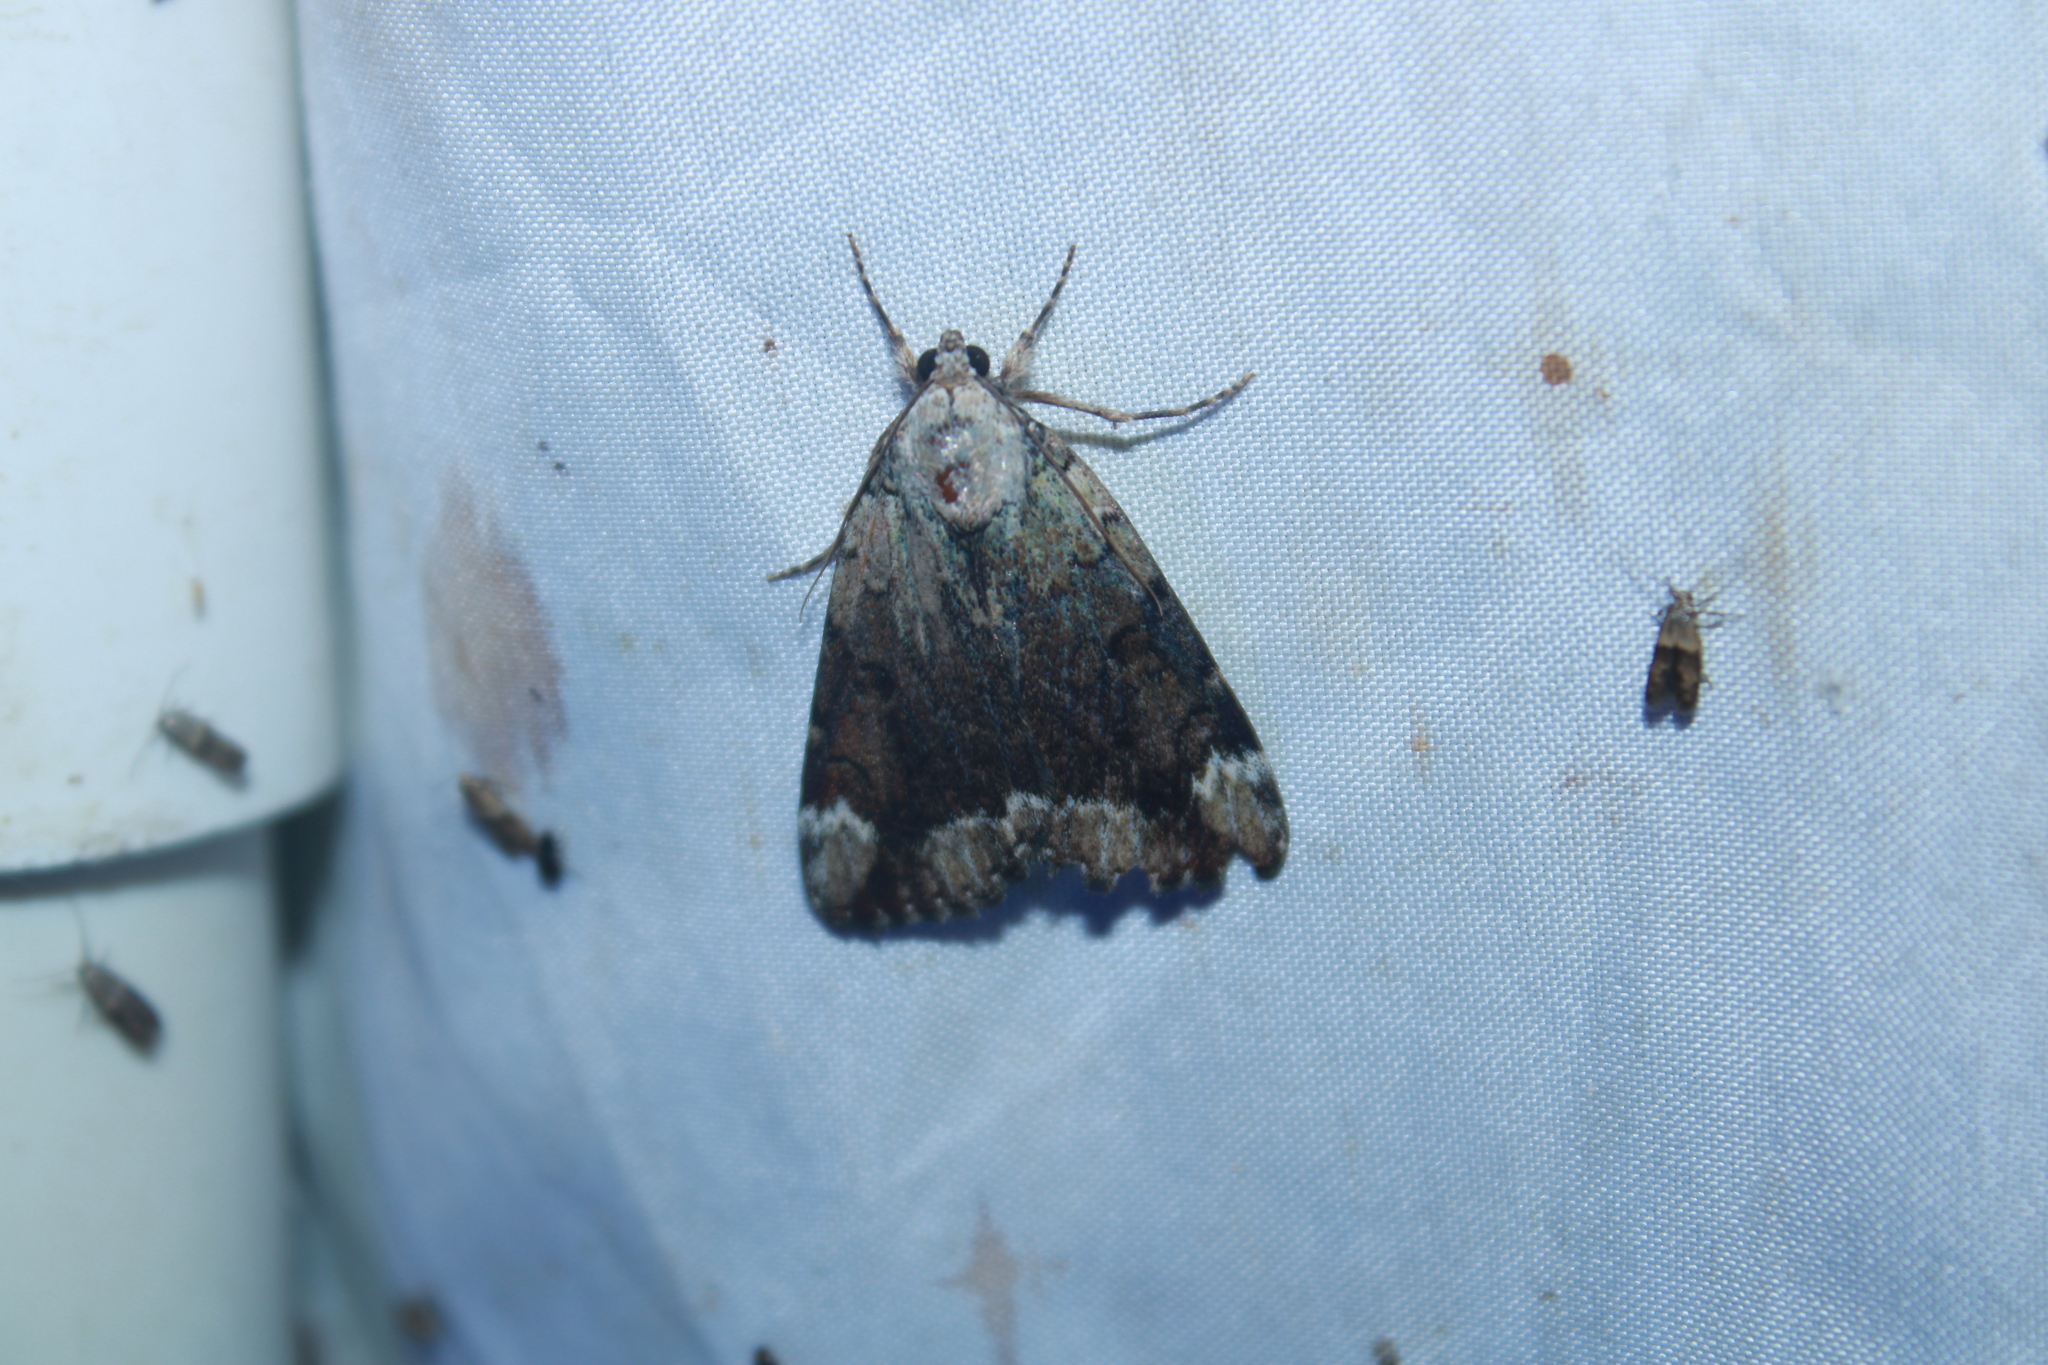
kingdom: Animalia
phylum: Arthropoda
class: Insecta
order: Lepidoptera
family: Erebidae
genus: Catocala
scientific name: Catocala micronympha
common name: Little nymph underwing
